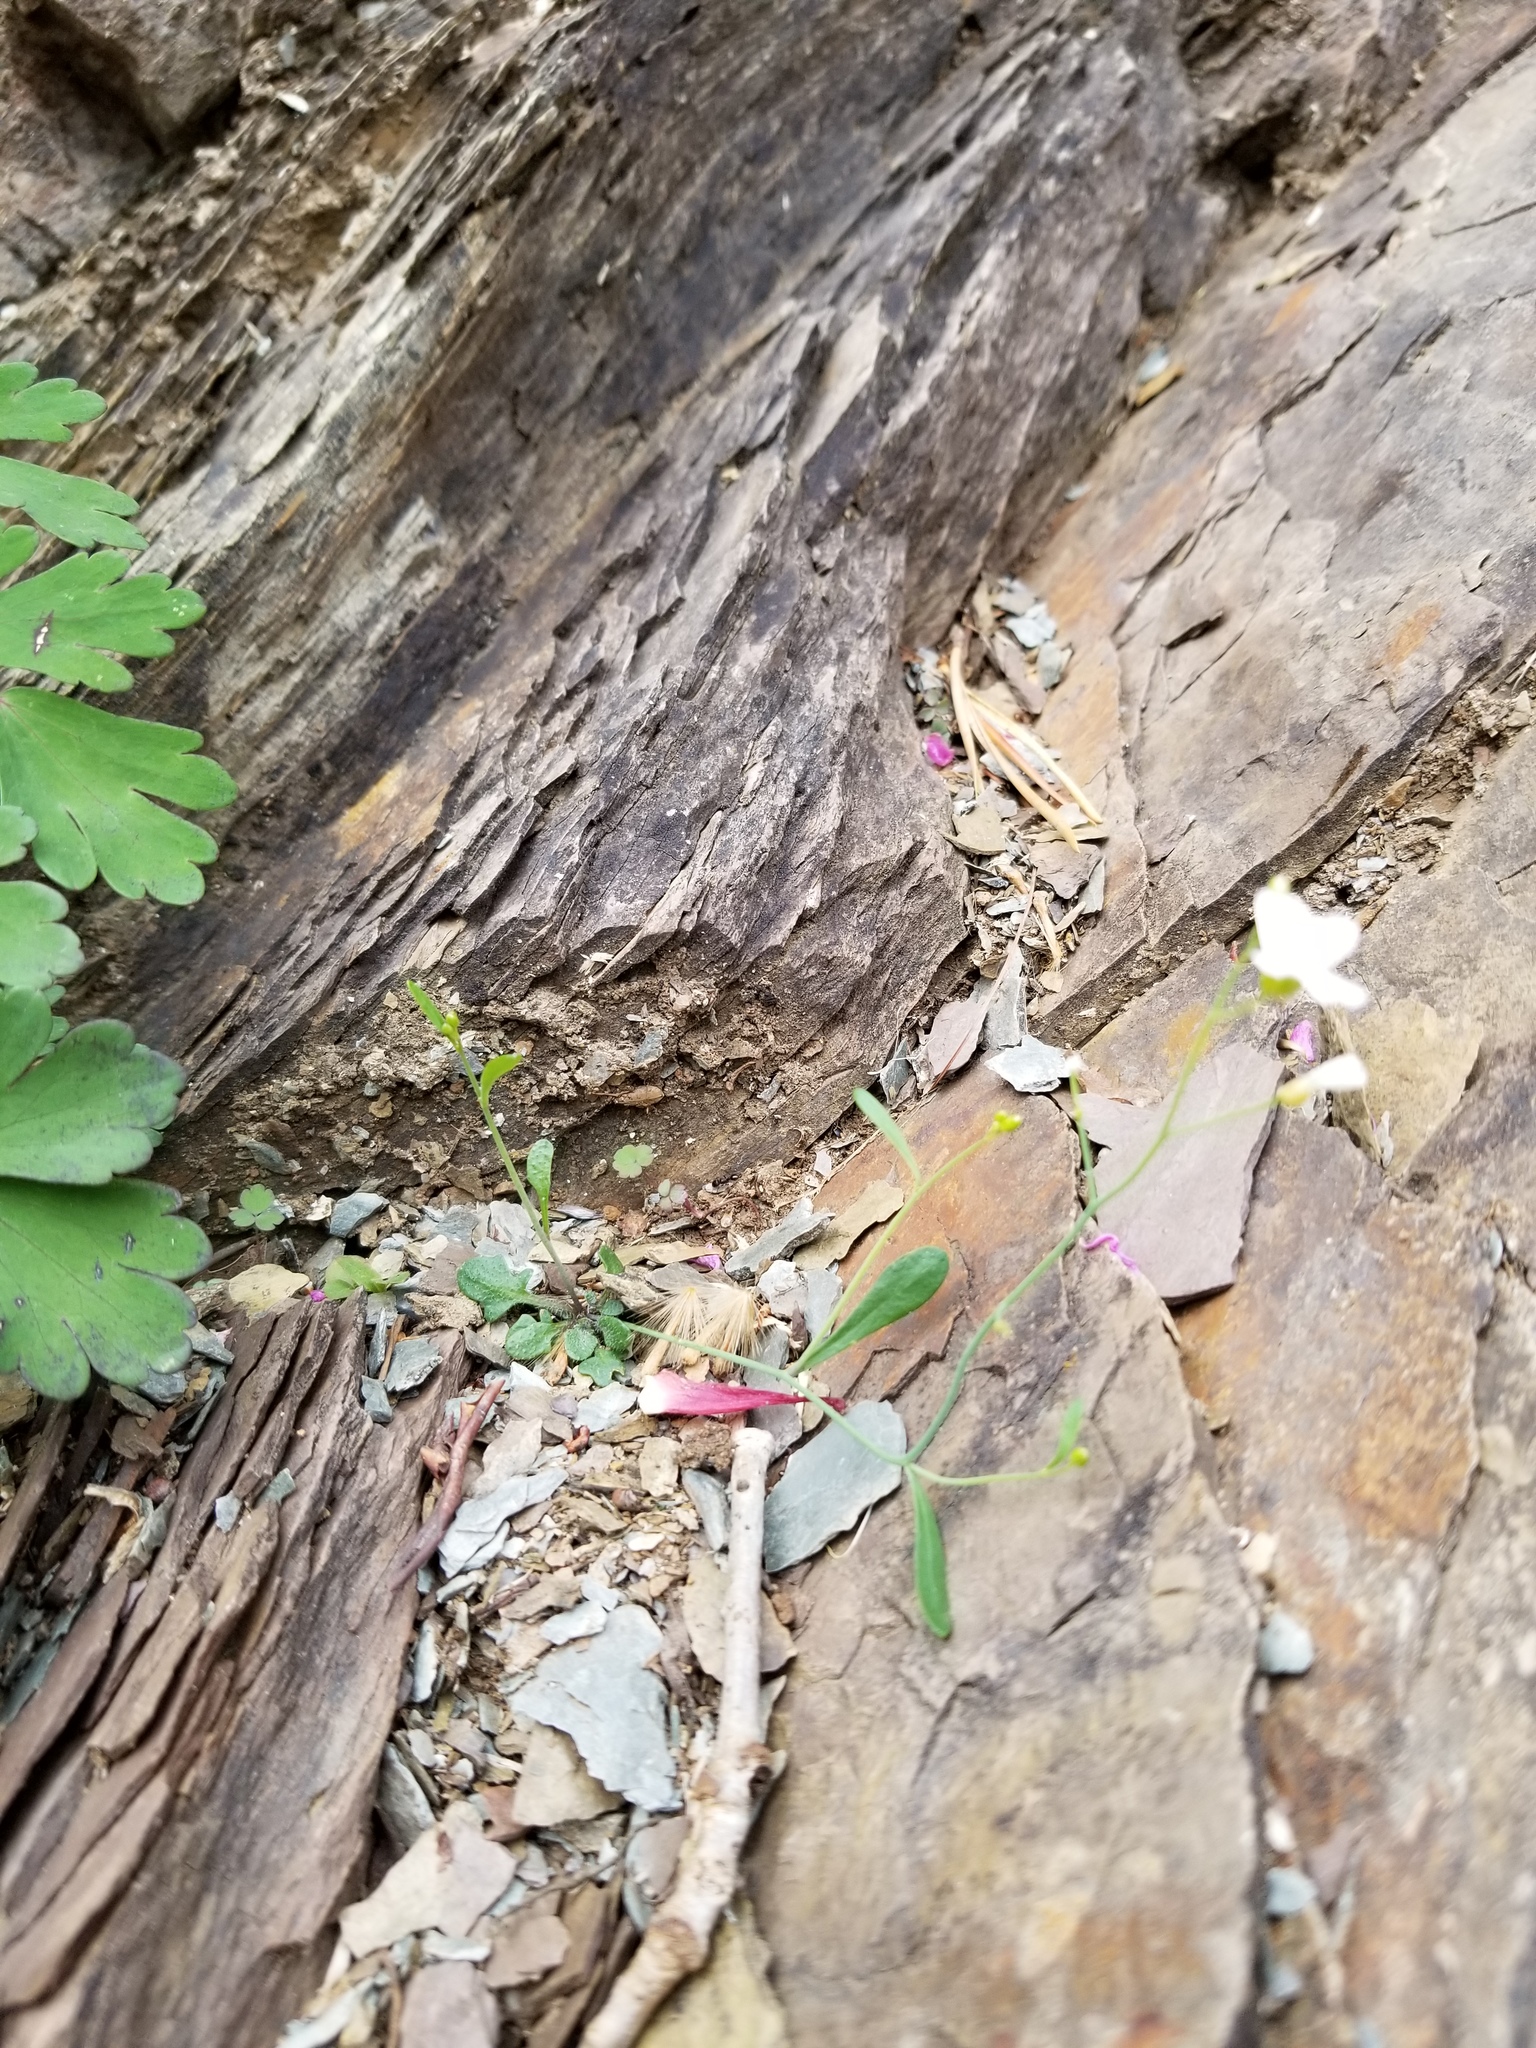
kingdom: Plantae
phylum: Tracheophyta
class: Magnoliopsida
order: Brassicales
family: Brassicaceae
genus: Arabidopsis
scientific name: Arabidopsis lyrata
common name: Lyrate rockcress
